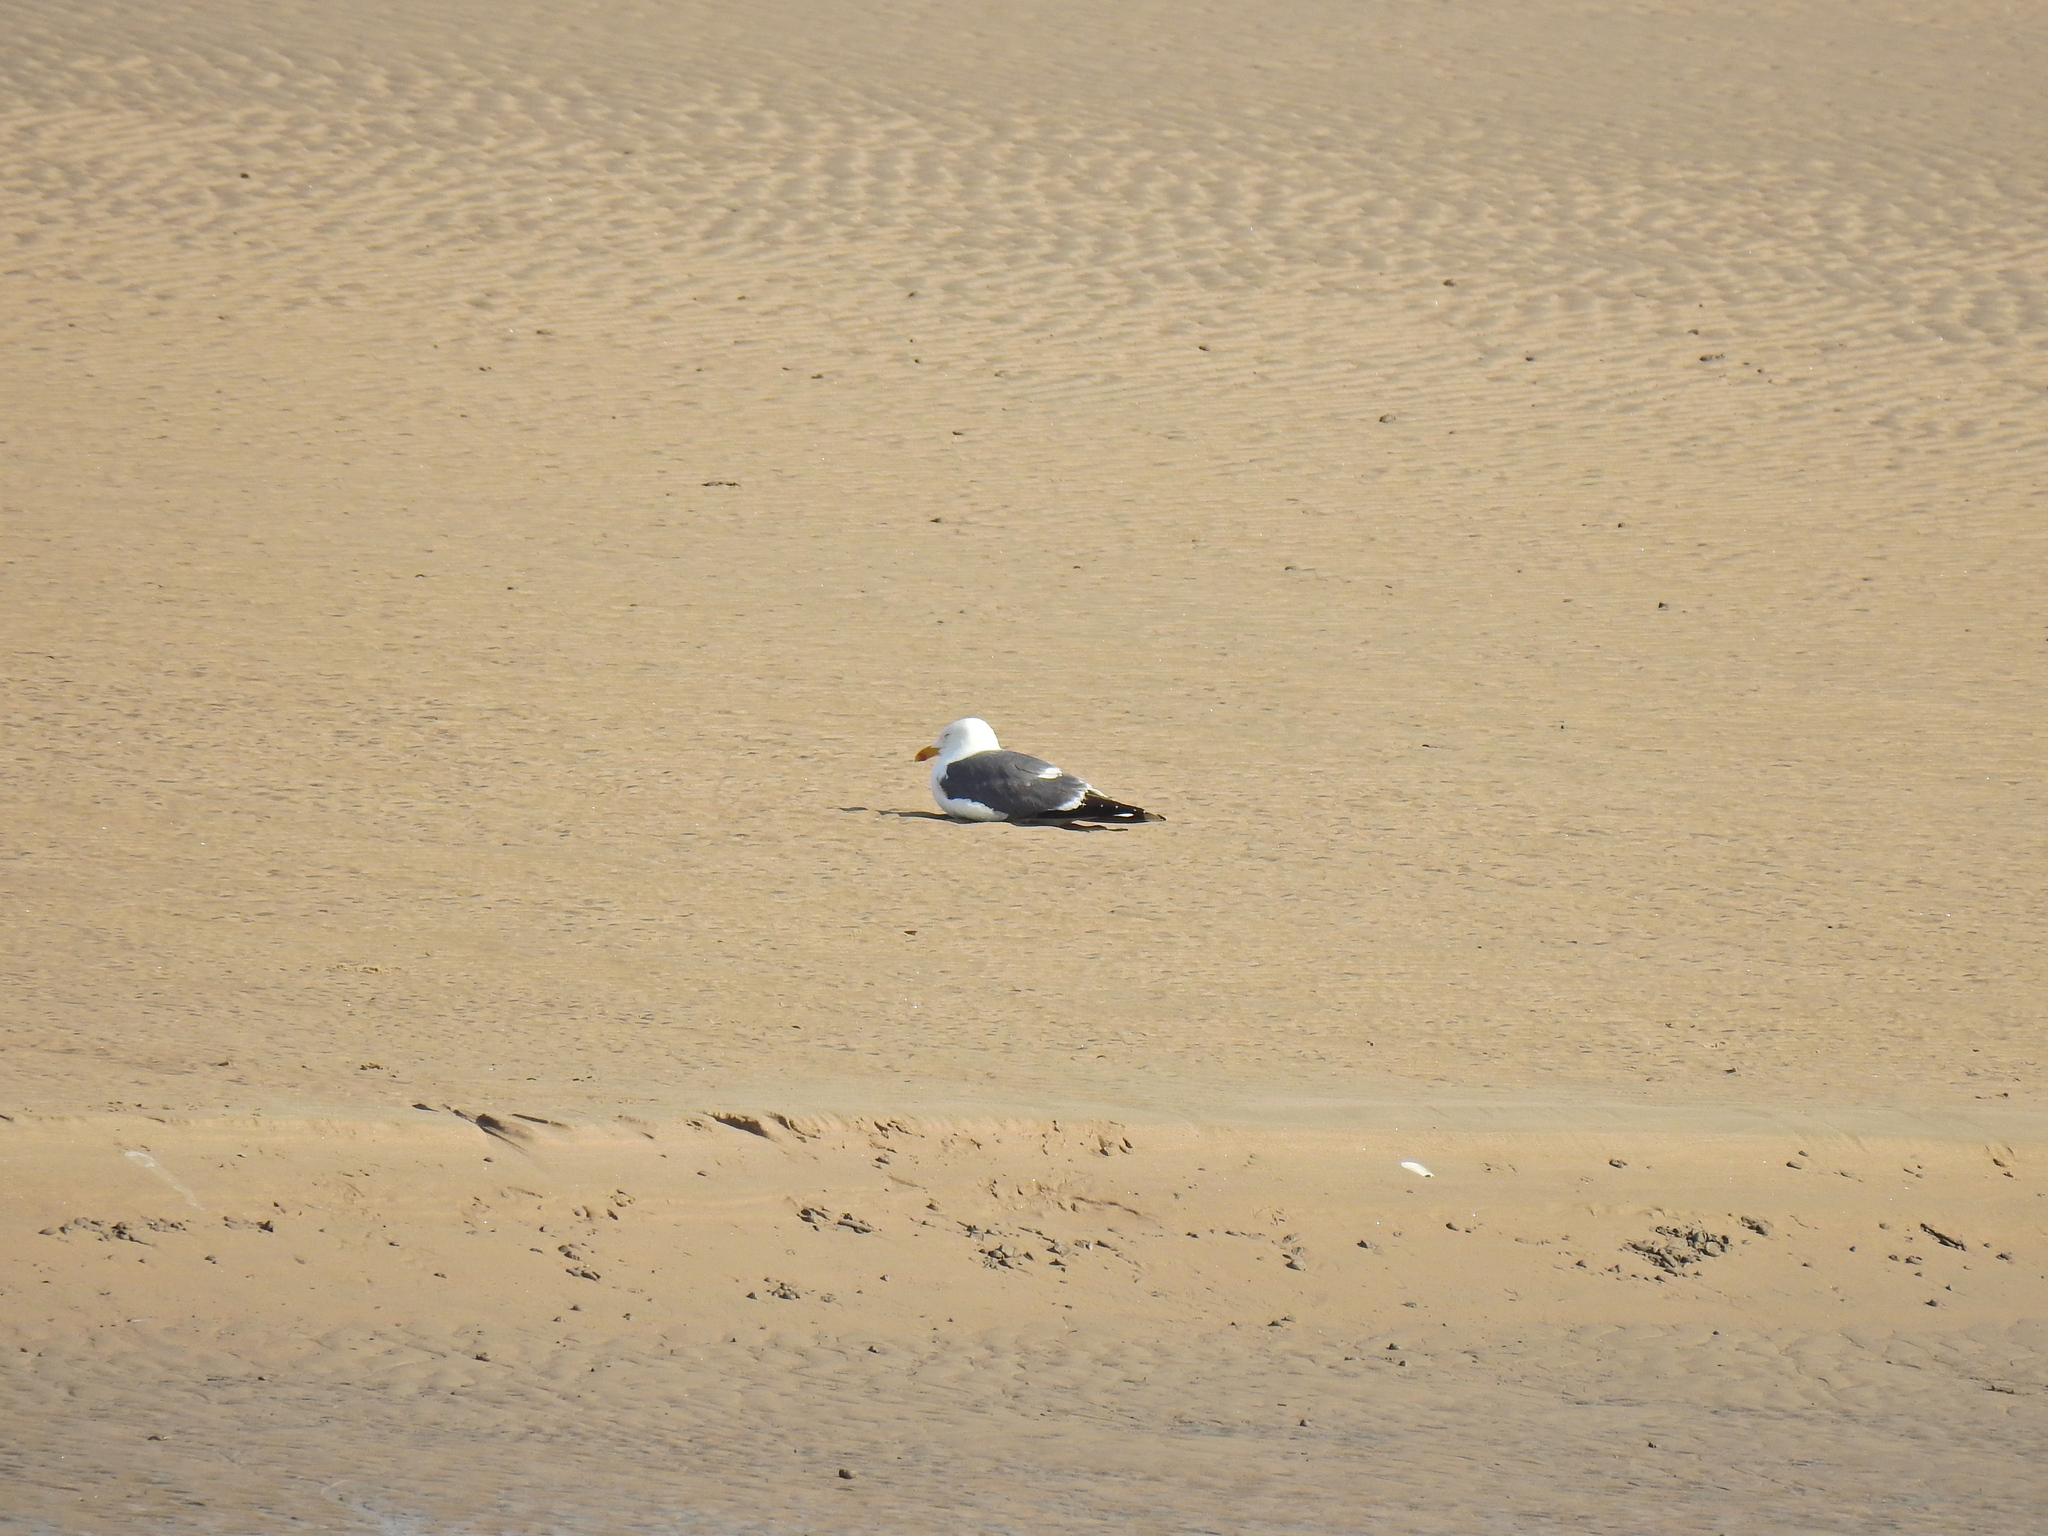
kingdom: Animalia
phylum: Chordata
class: Aves
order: Charadriiformes
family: Laridae
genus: Larus
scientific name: Larus fuscus
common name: Lesser black-backed gull
